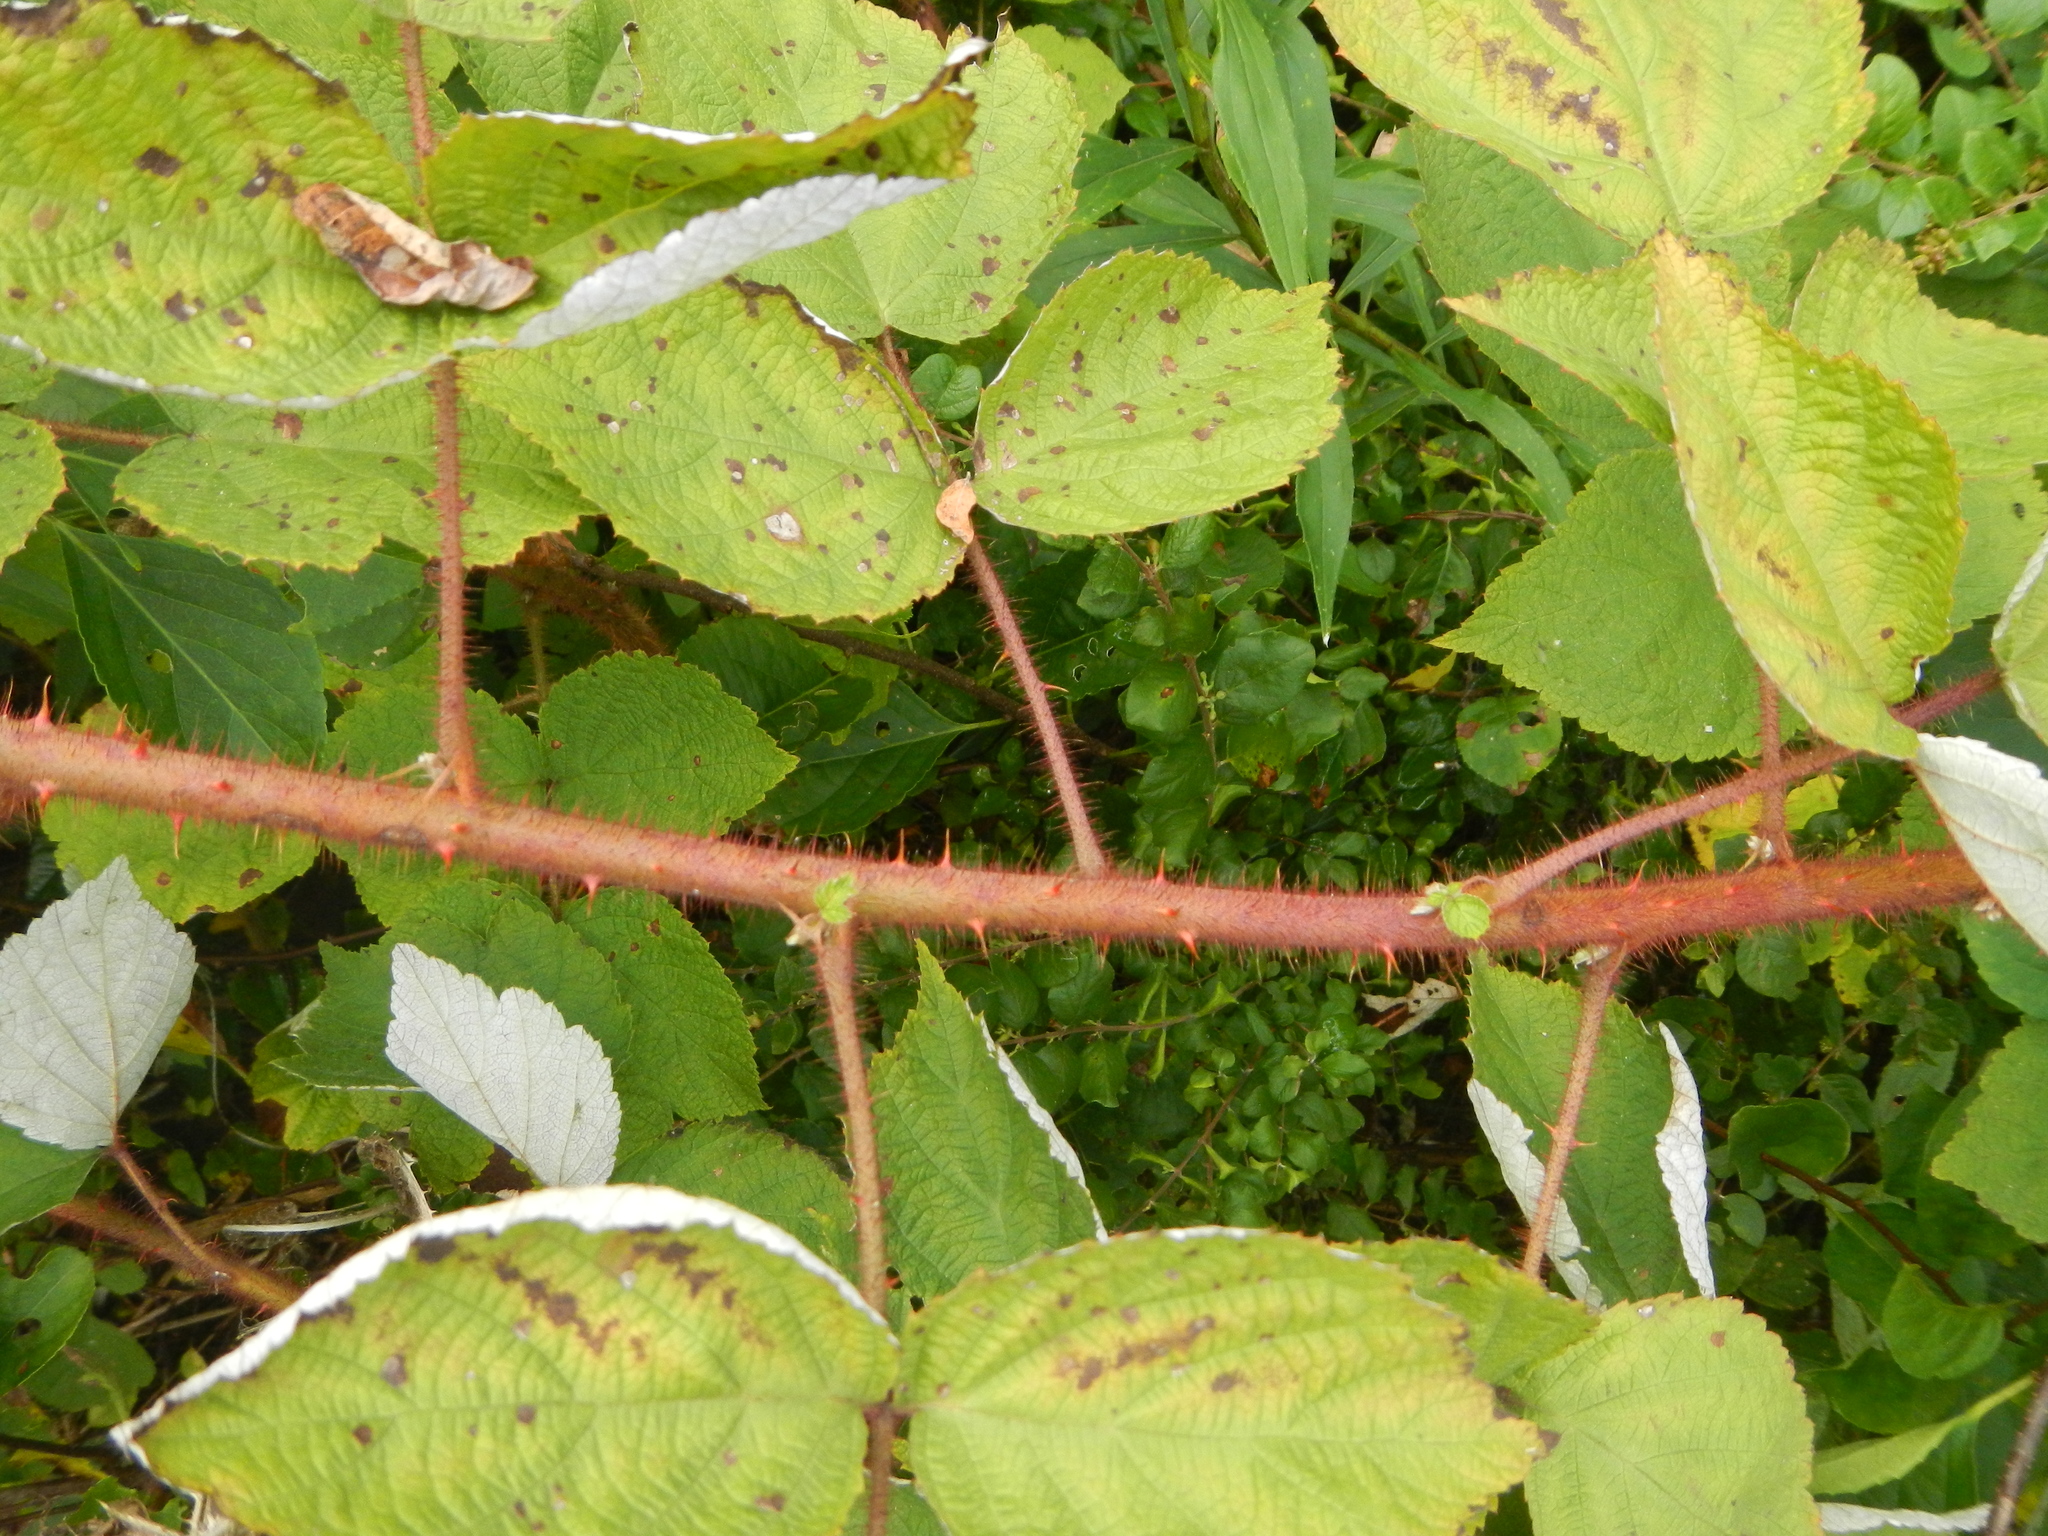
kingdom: Plantae
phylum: Tracheophyta
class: Magnoliopsida
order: Rosales
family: Rosaceae
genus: Rubus
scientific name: Rubus phoenicolasius
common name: Japanese wineberry
